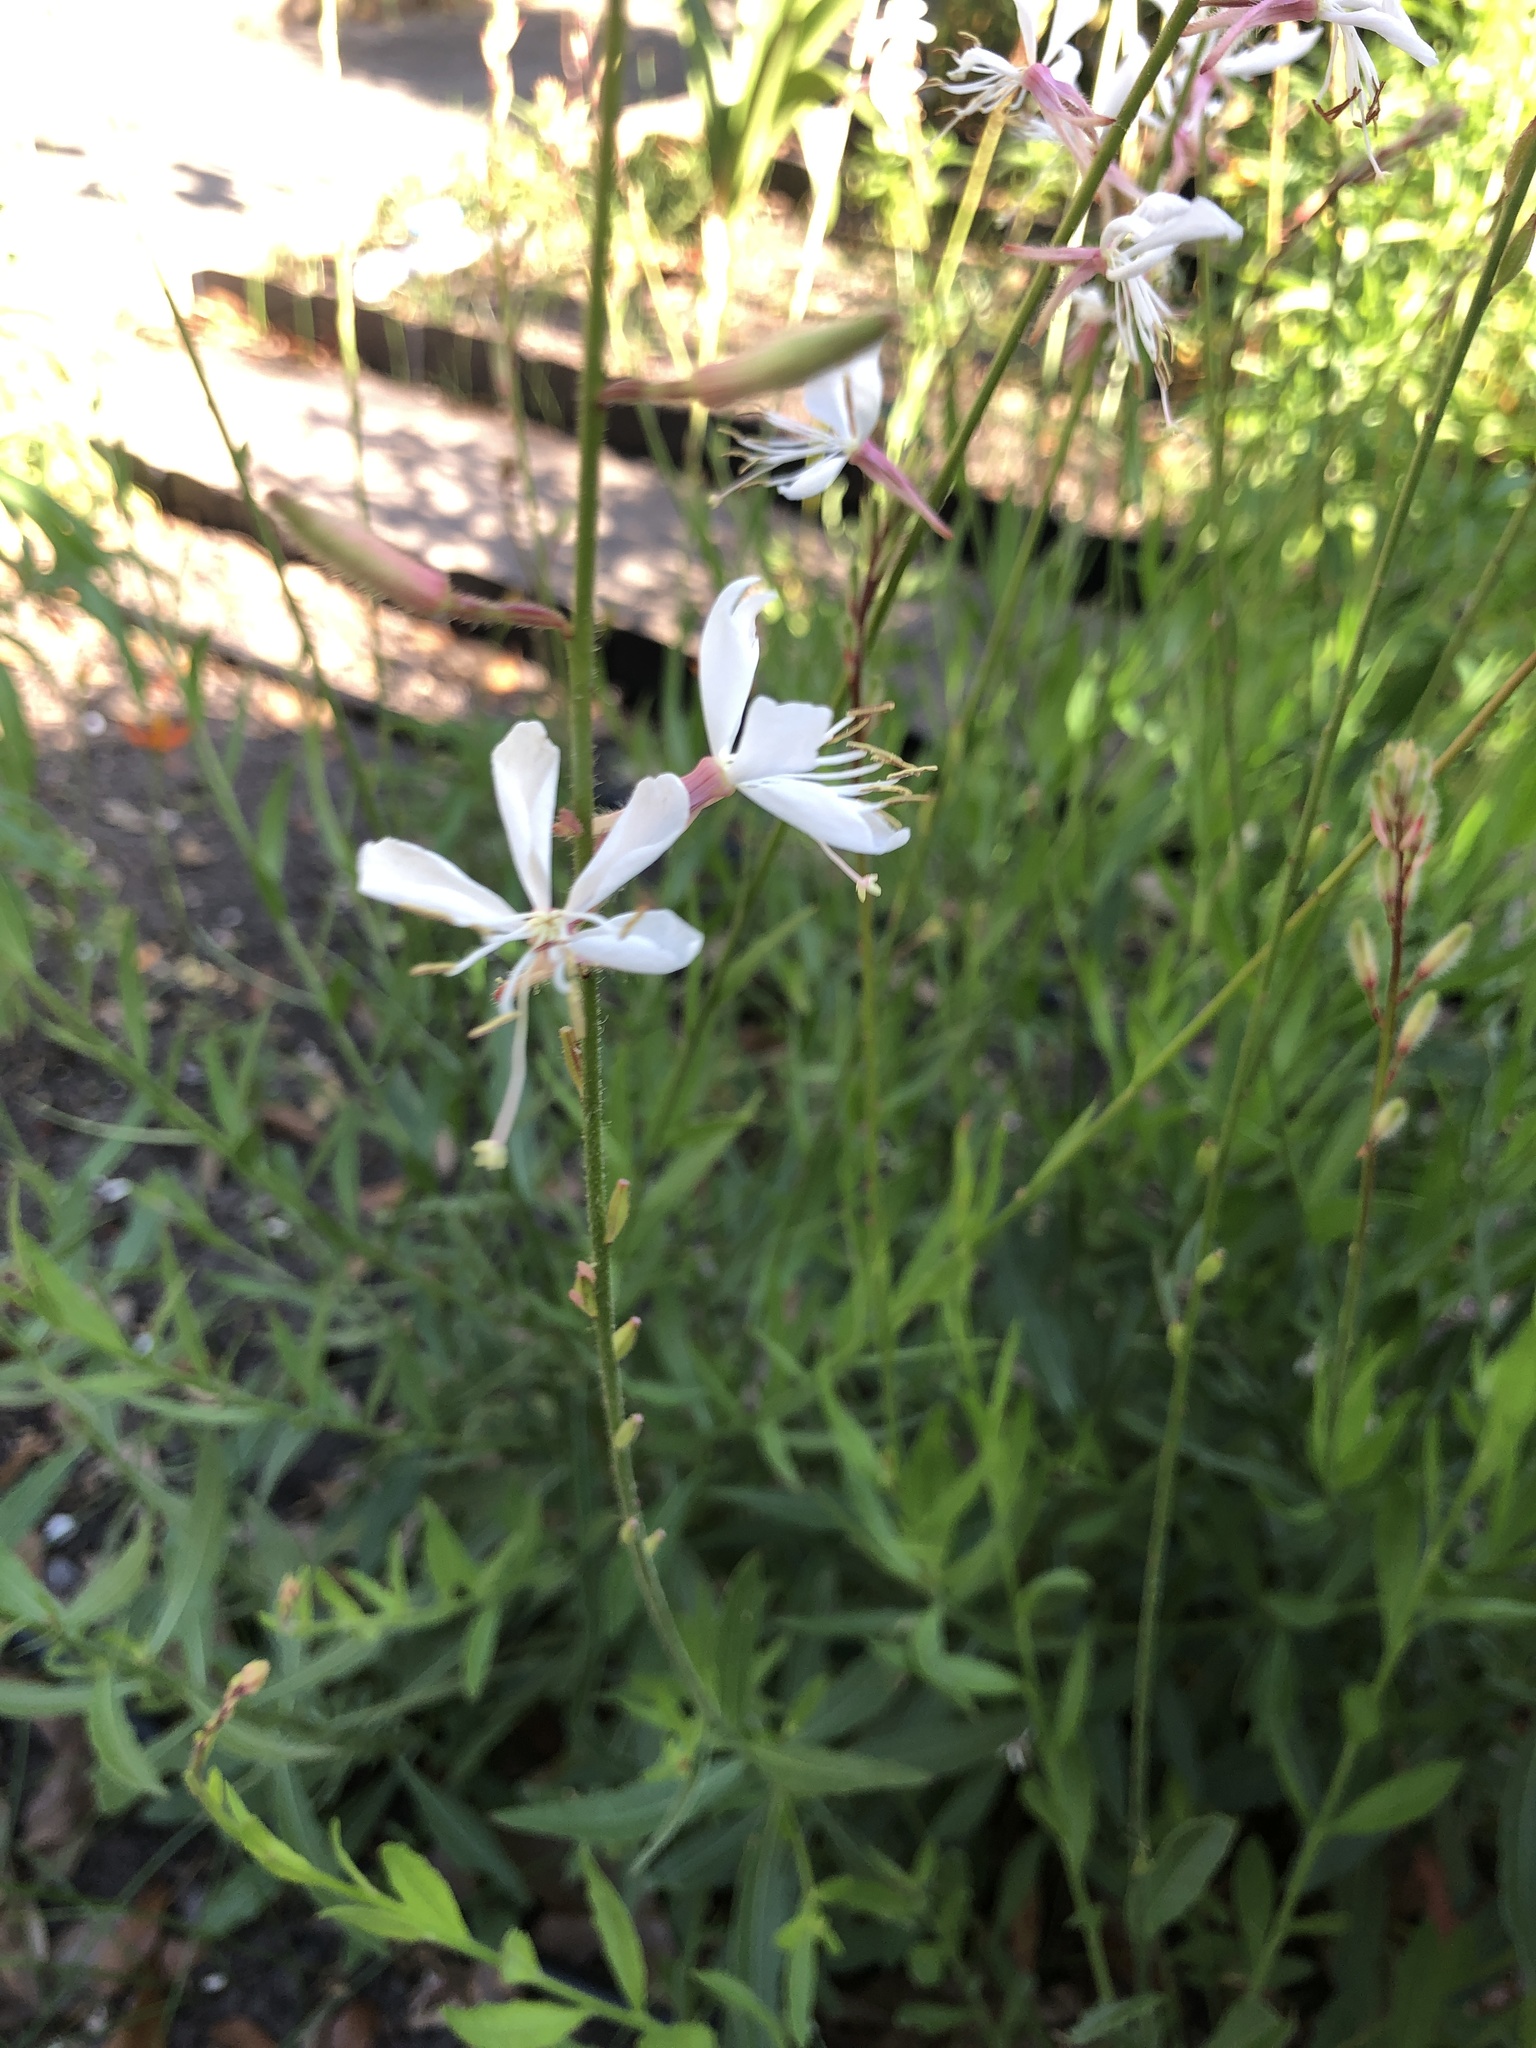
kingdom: Plantae
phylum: Tracheophyta
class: Magnoliopsida
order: Myrtales
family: Onagraceae
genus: Oenothera
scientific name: Oenothera lindheimeri
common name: Lindheimer's beeblossom
